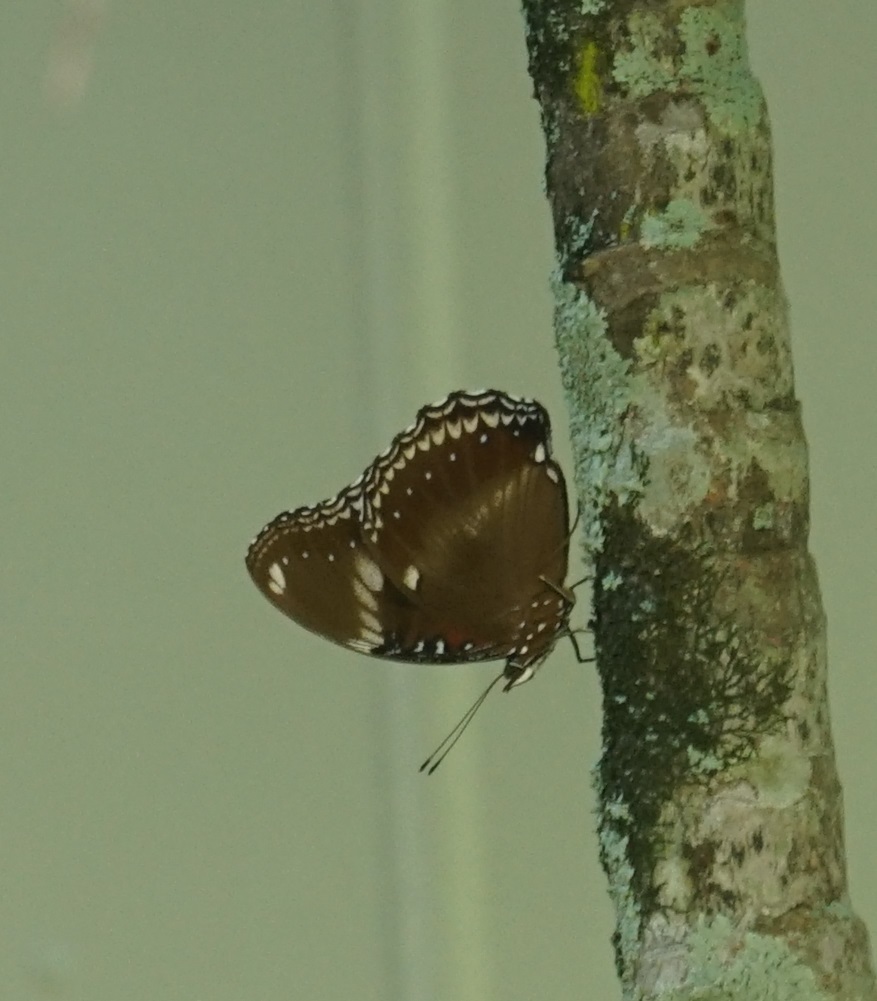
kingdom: Animalia
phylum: Arthropoda
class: Insecta
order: Lepidoptera
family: Nymphalidae
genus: Hypolimnas
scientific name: Hypolimnas bolina
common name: Great eggfly
